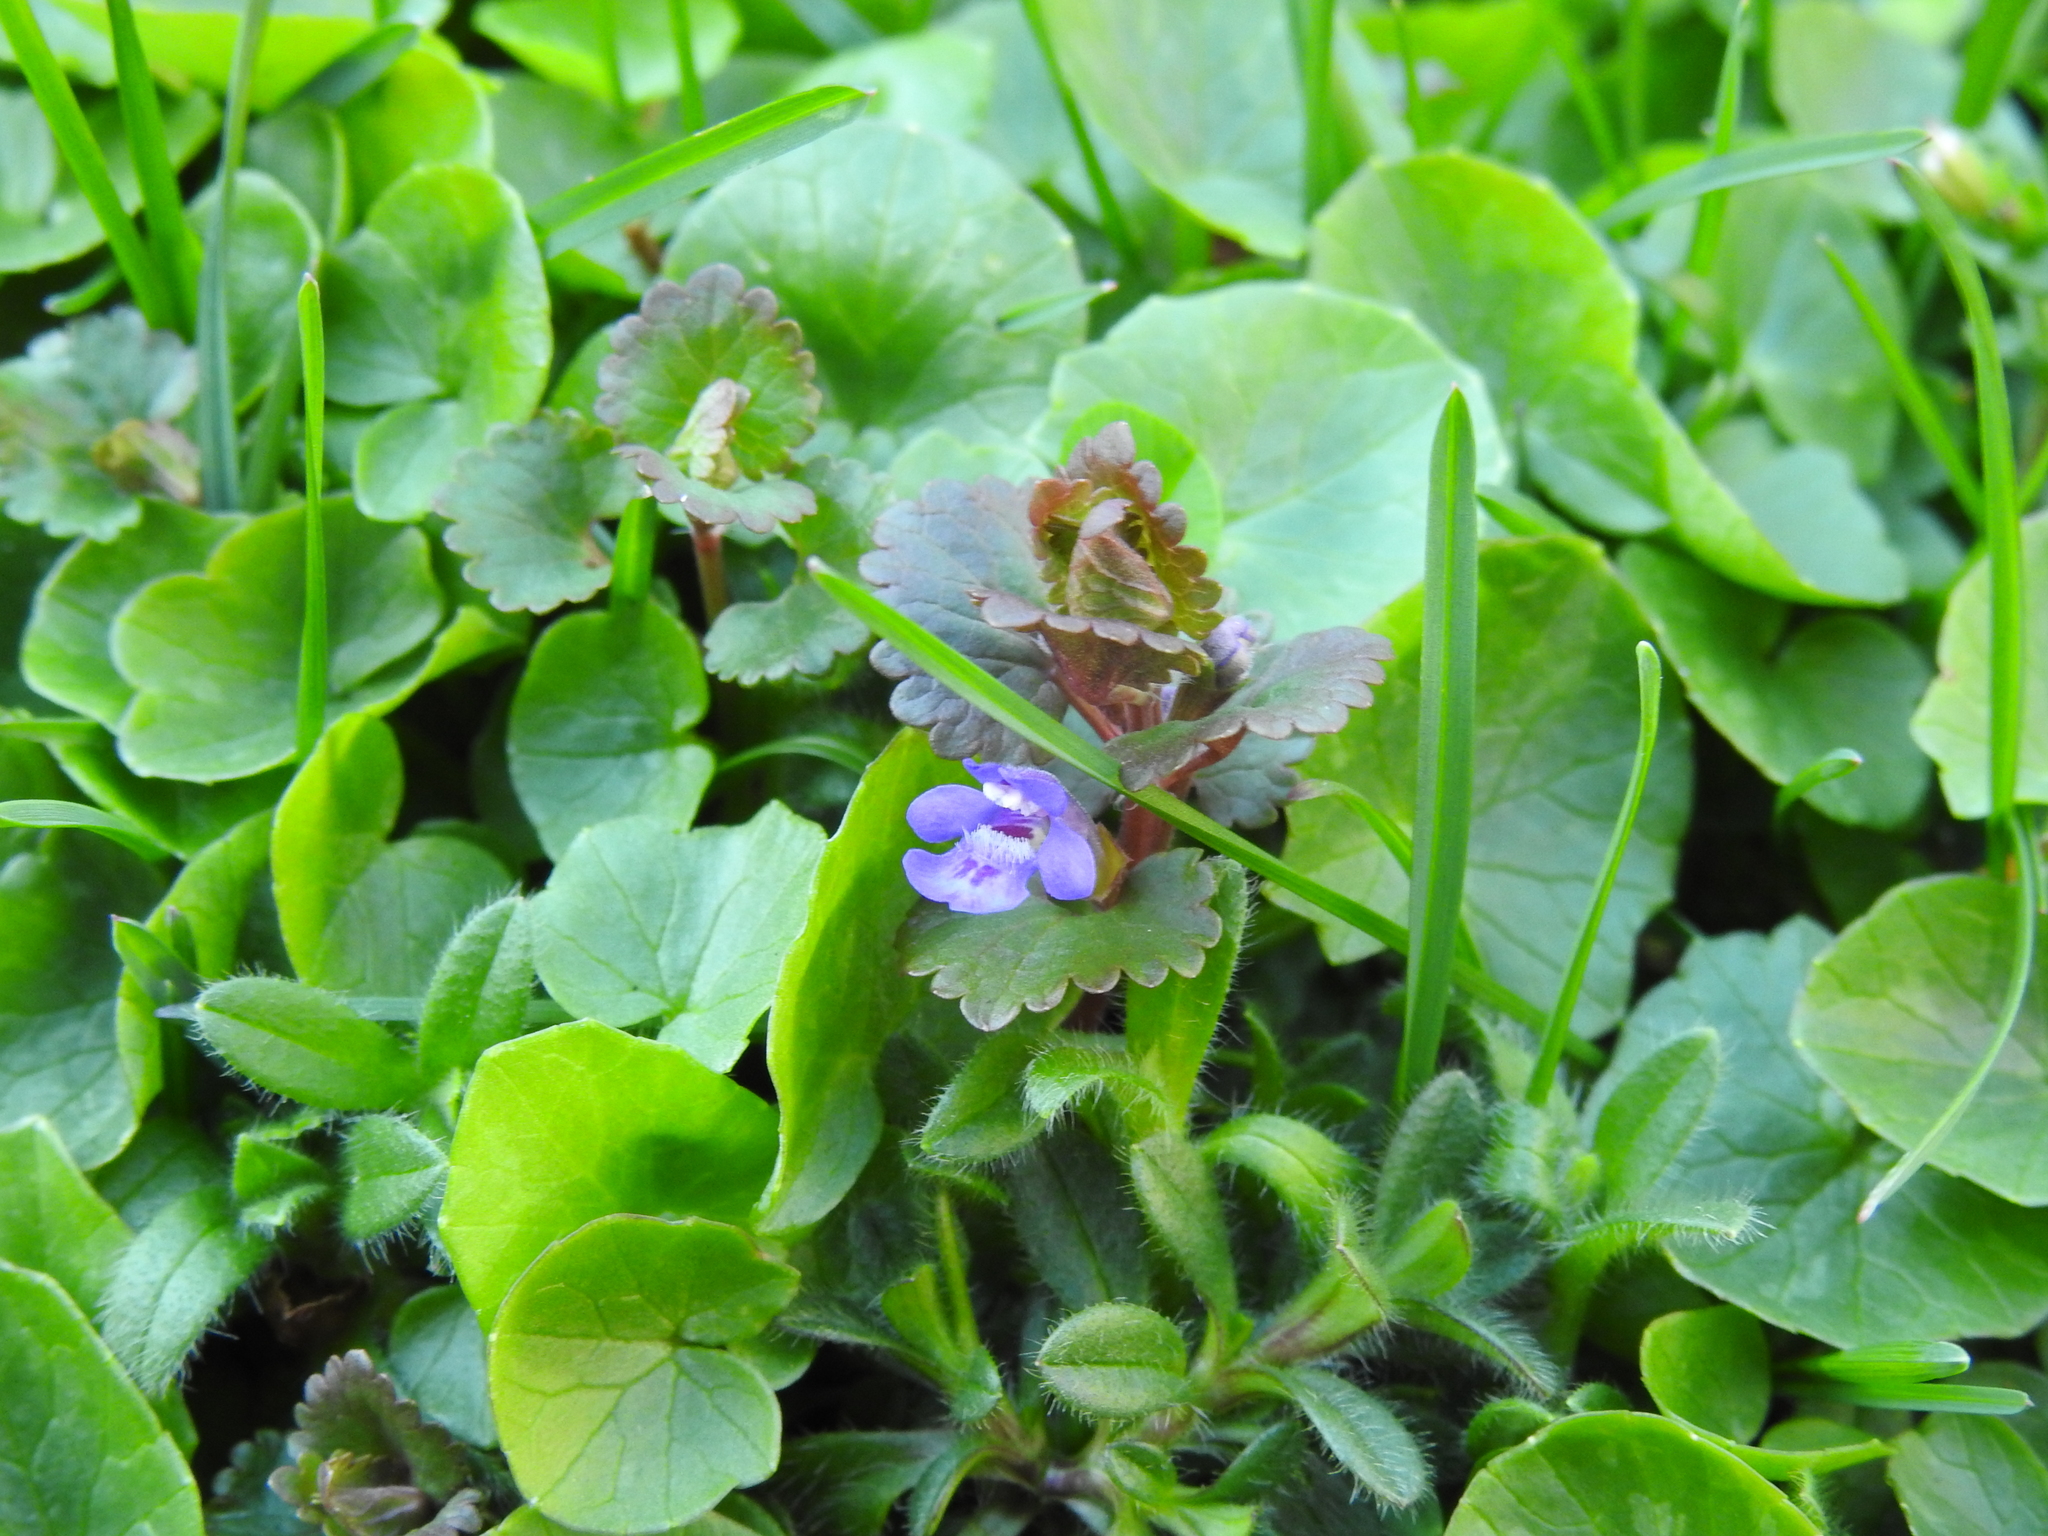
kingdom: Plantae
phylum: Tracheophyta
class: Magnoliopsida
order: Lamiales
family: Lamiaceae
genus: Glechoma
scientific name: Glechoma hederacea
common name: Ground ivy
